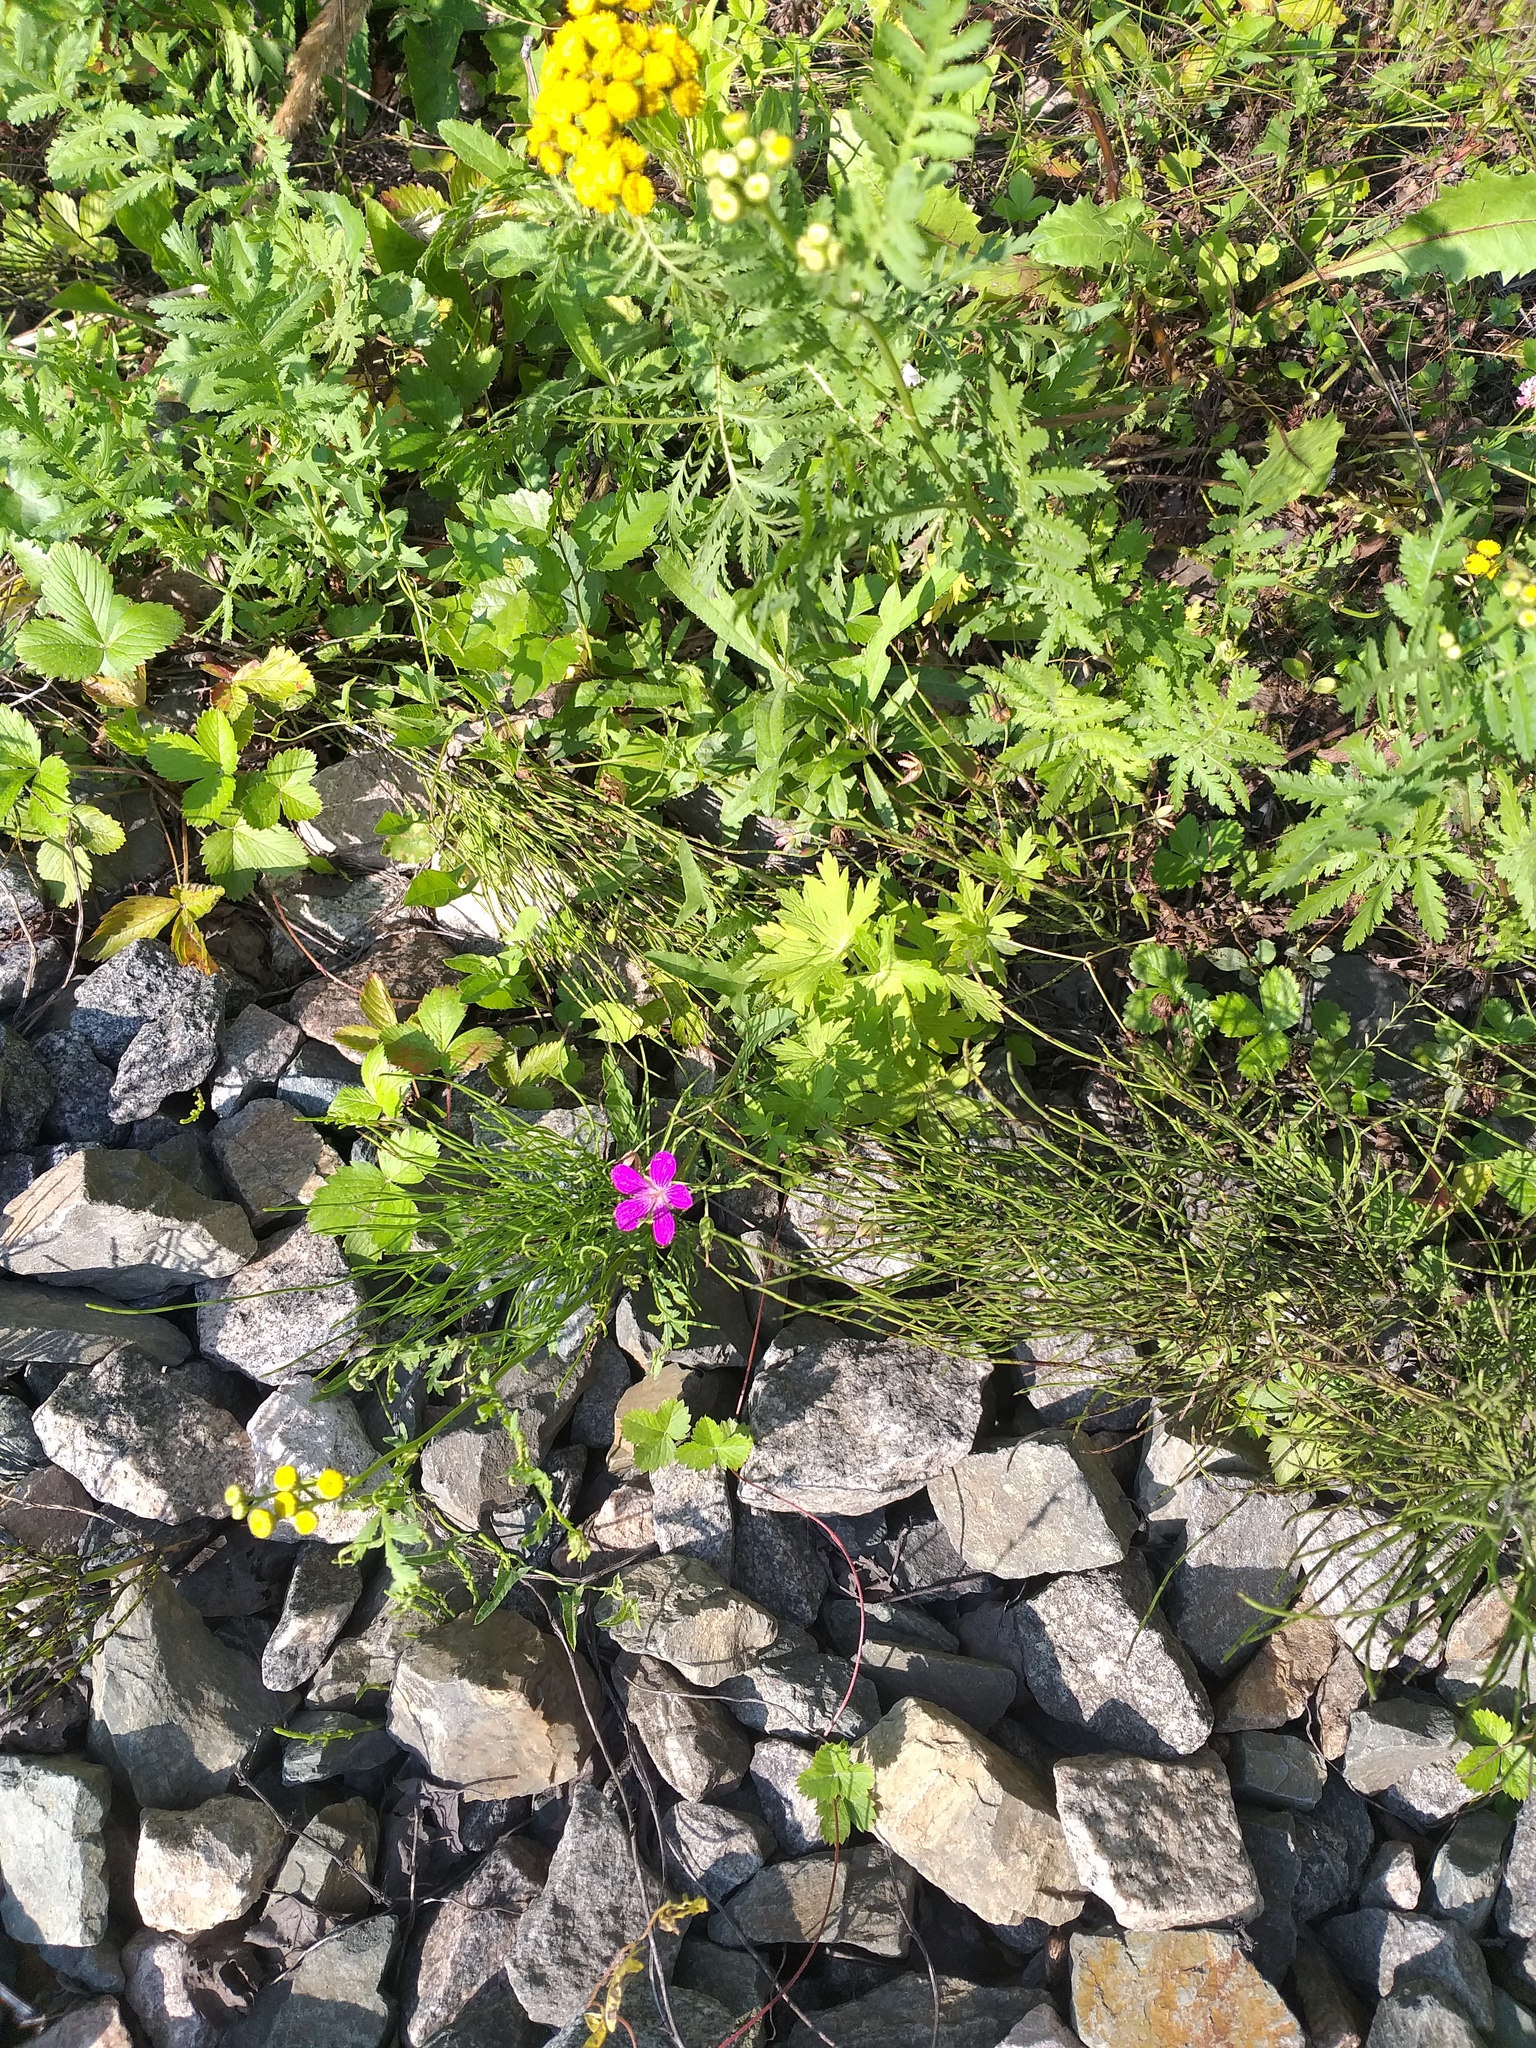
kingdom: Plantae
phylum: Tracheophyta
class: Magnoliopsida
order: Geraniales
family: Geraniaceae
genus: Geranium
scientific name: Geranium palustre
